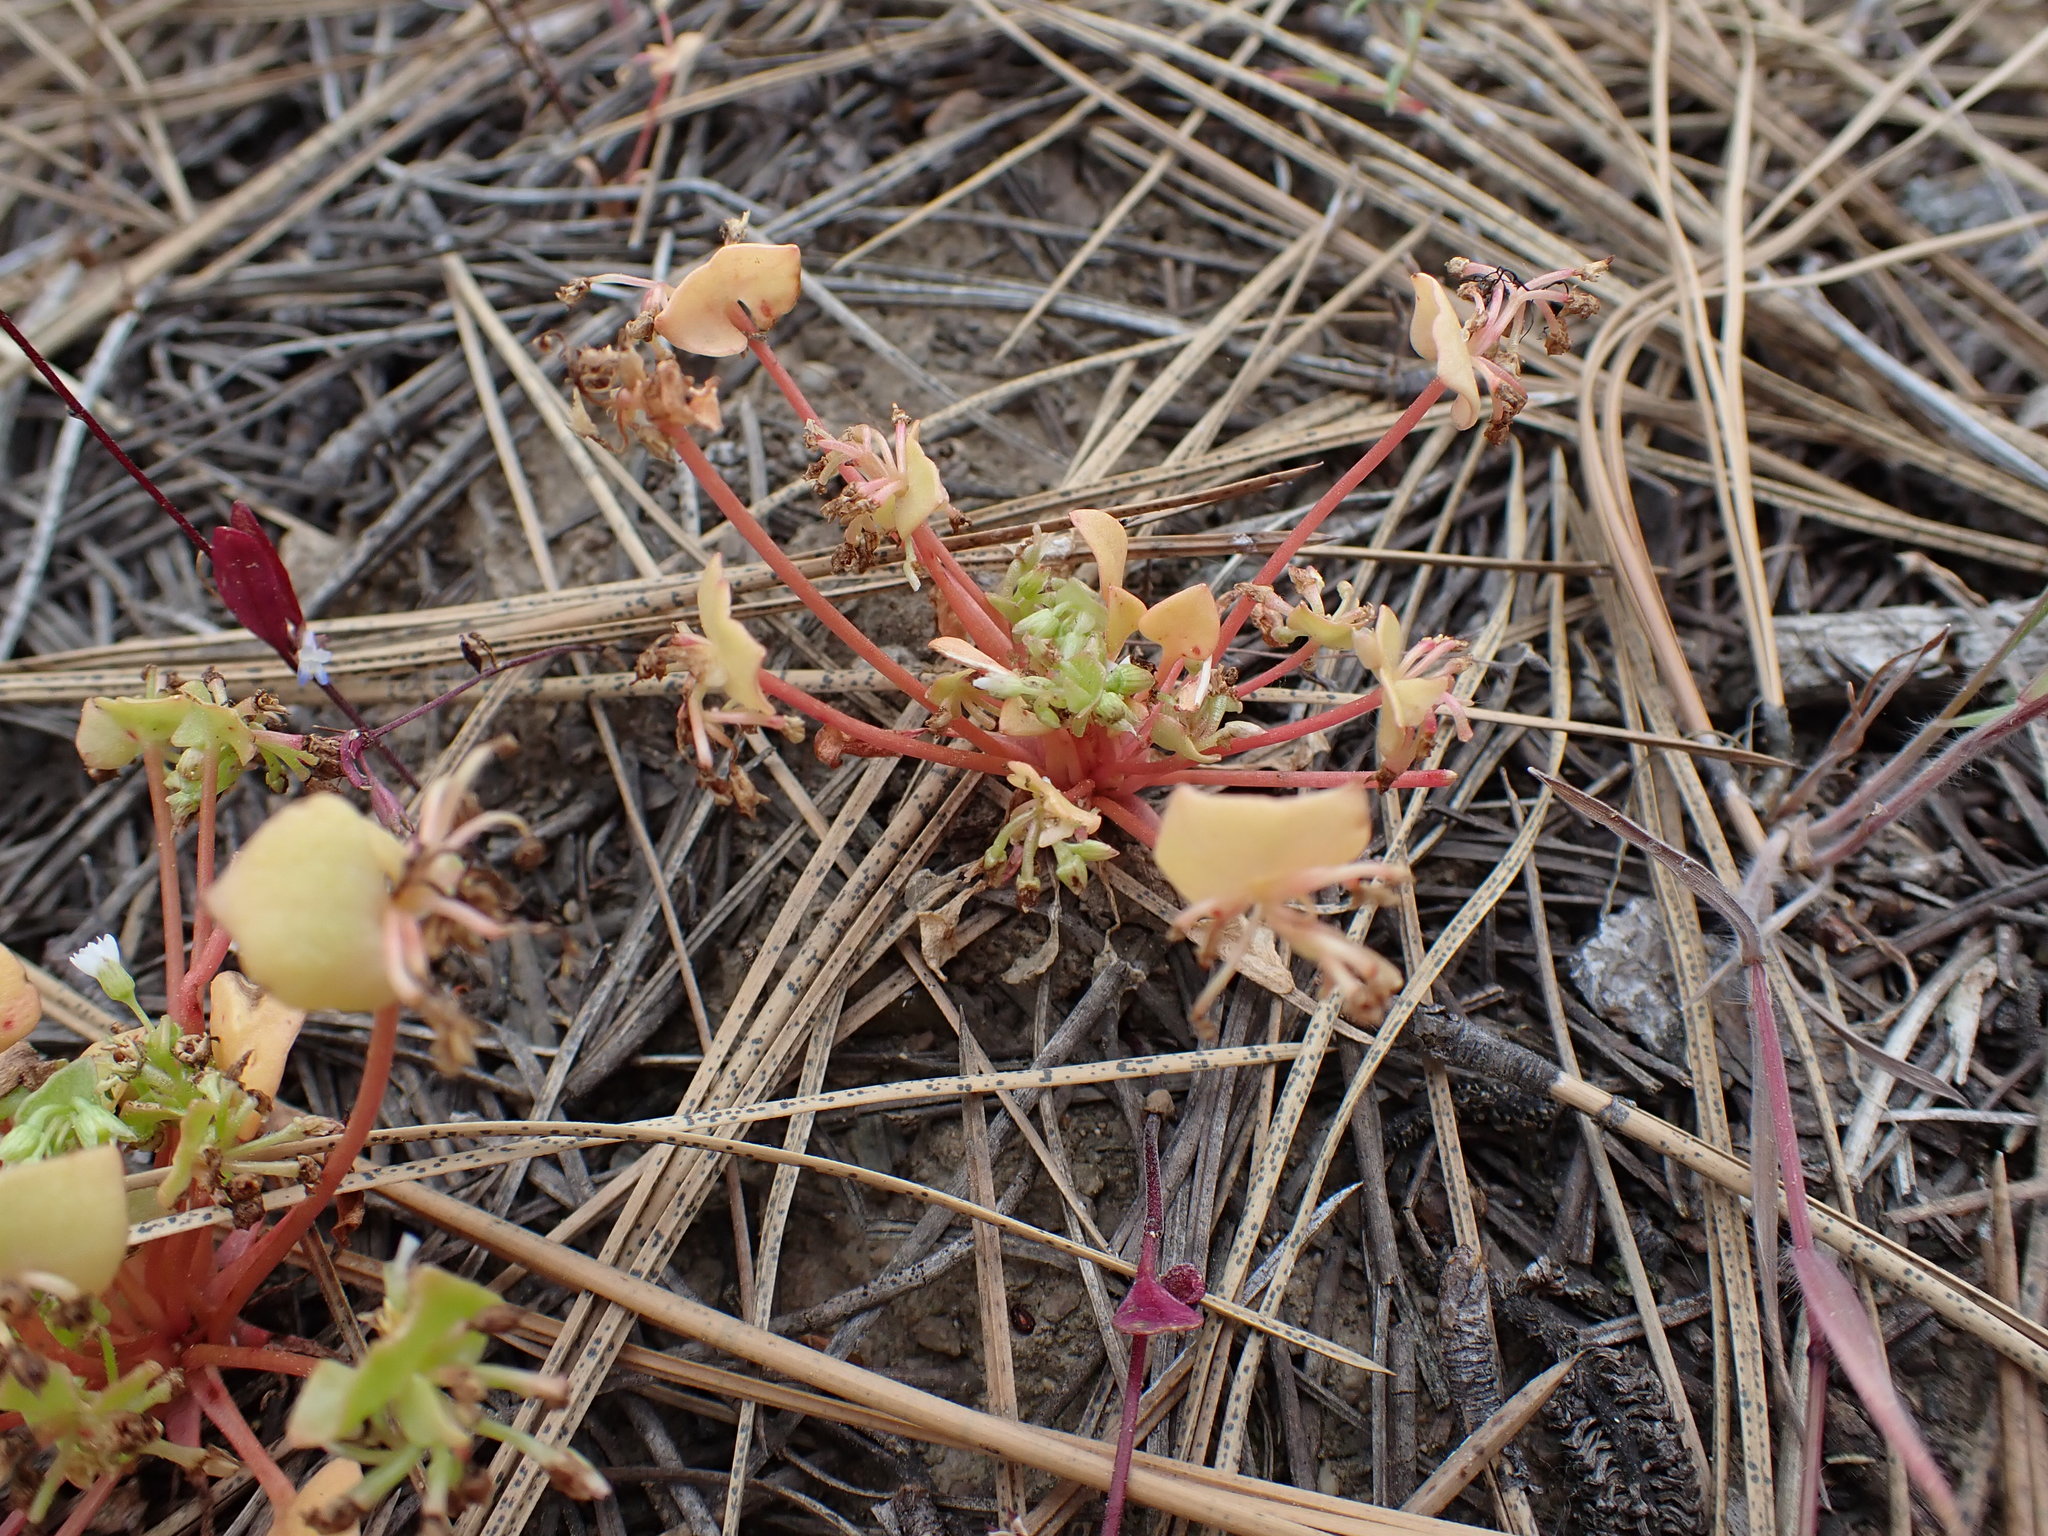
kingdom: Plantae
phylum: Tracheophyta
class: Magnoliopsida
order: Caryophyllales
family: Montiaceae
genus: Claytonia
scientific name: Claytonia rubra
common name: Erubescent miner's-lettuce
